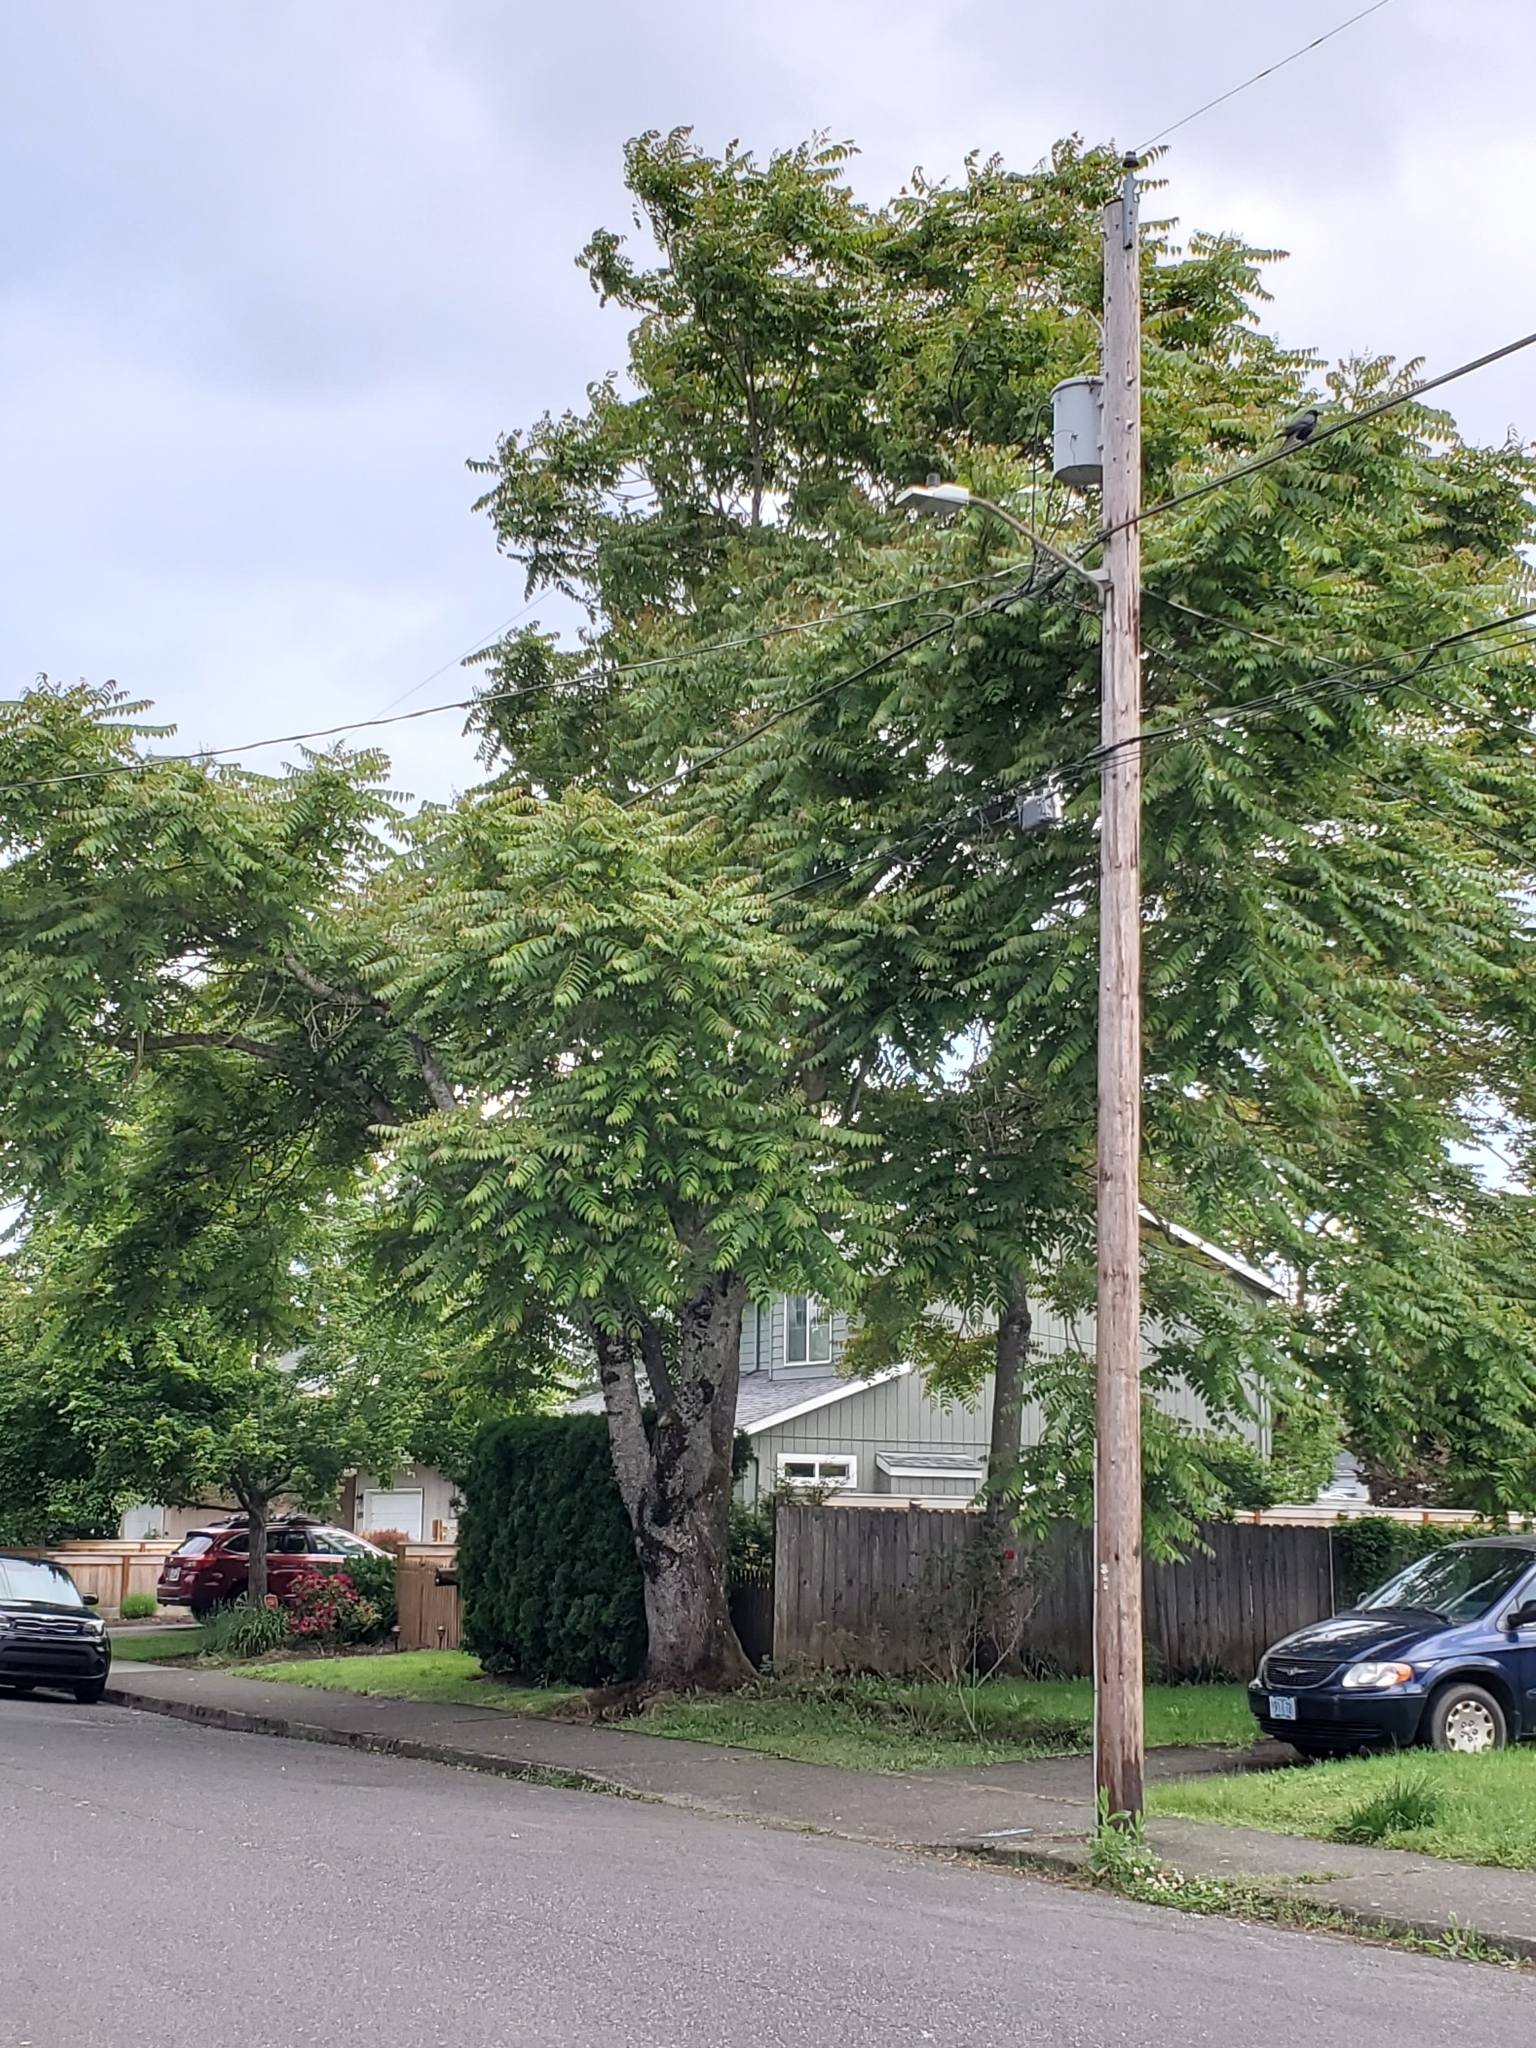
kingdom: Plantae
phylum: Tracheophyta
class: Magnoliopsida
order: Sapindales
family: Simaroubaceae
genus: Ailanthus
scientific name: Ailanthus altissima
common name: Tree-of-heaven
